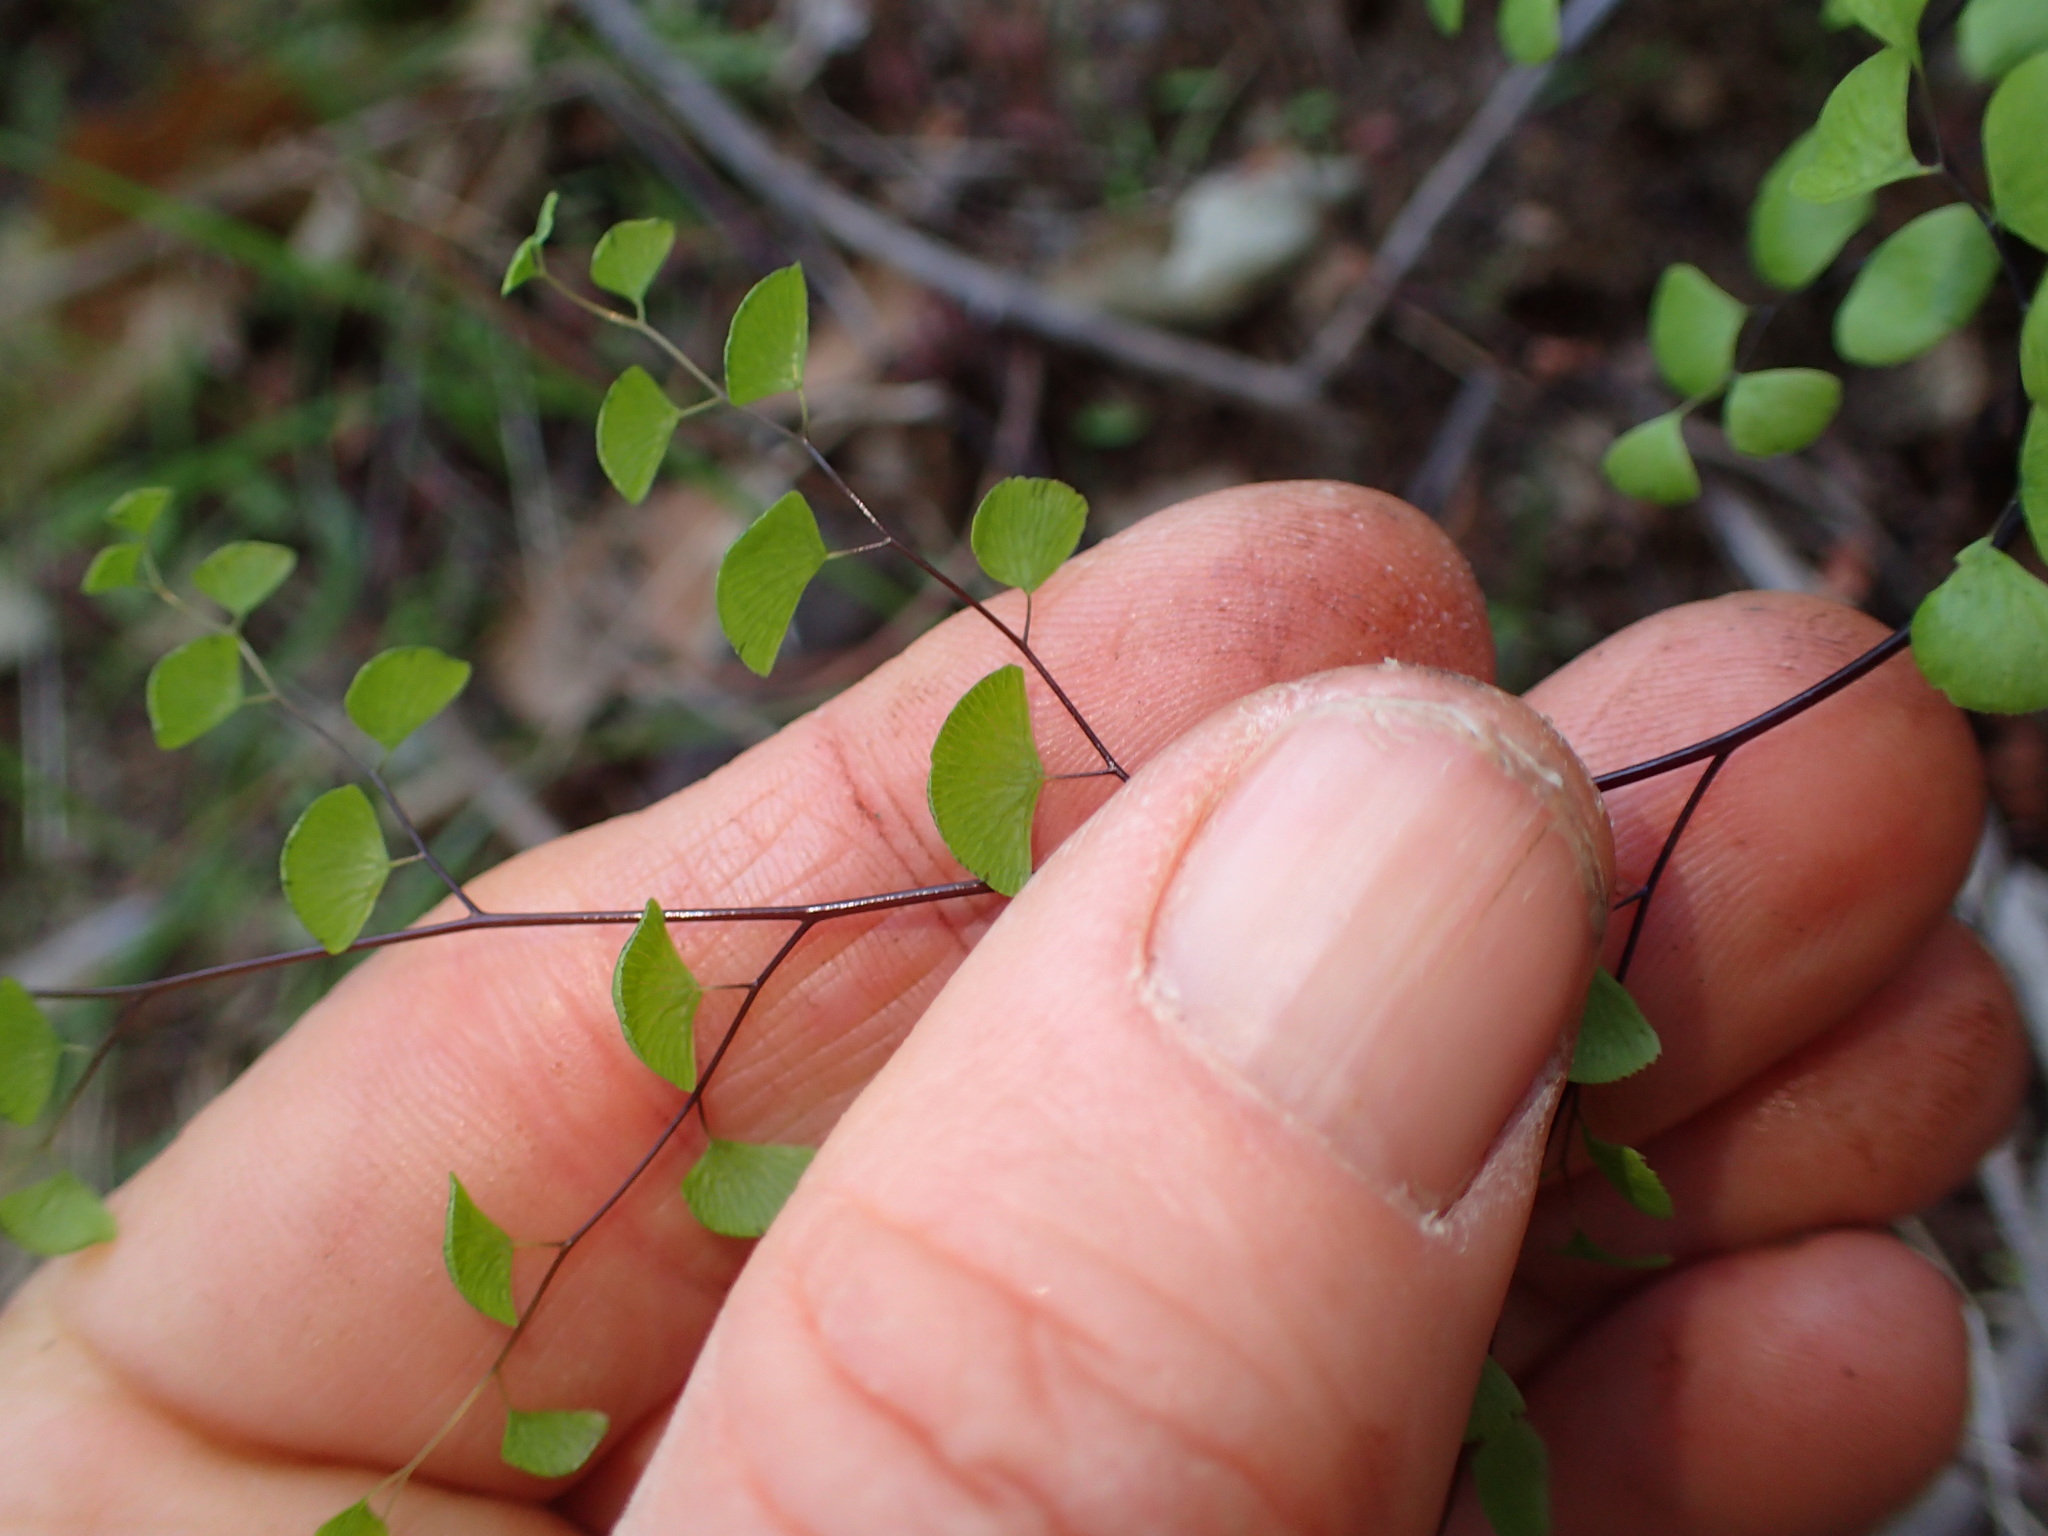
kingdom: Plantae
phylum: Tracheophyta
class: Polypodiopsida
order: Polypodiales
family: Pteridaceae
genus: Adiantum
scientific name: Adiantum jordanii
